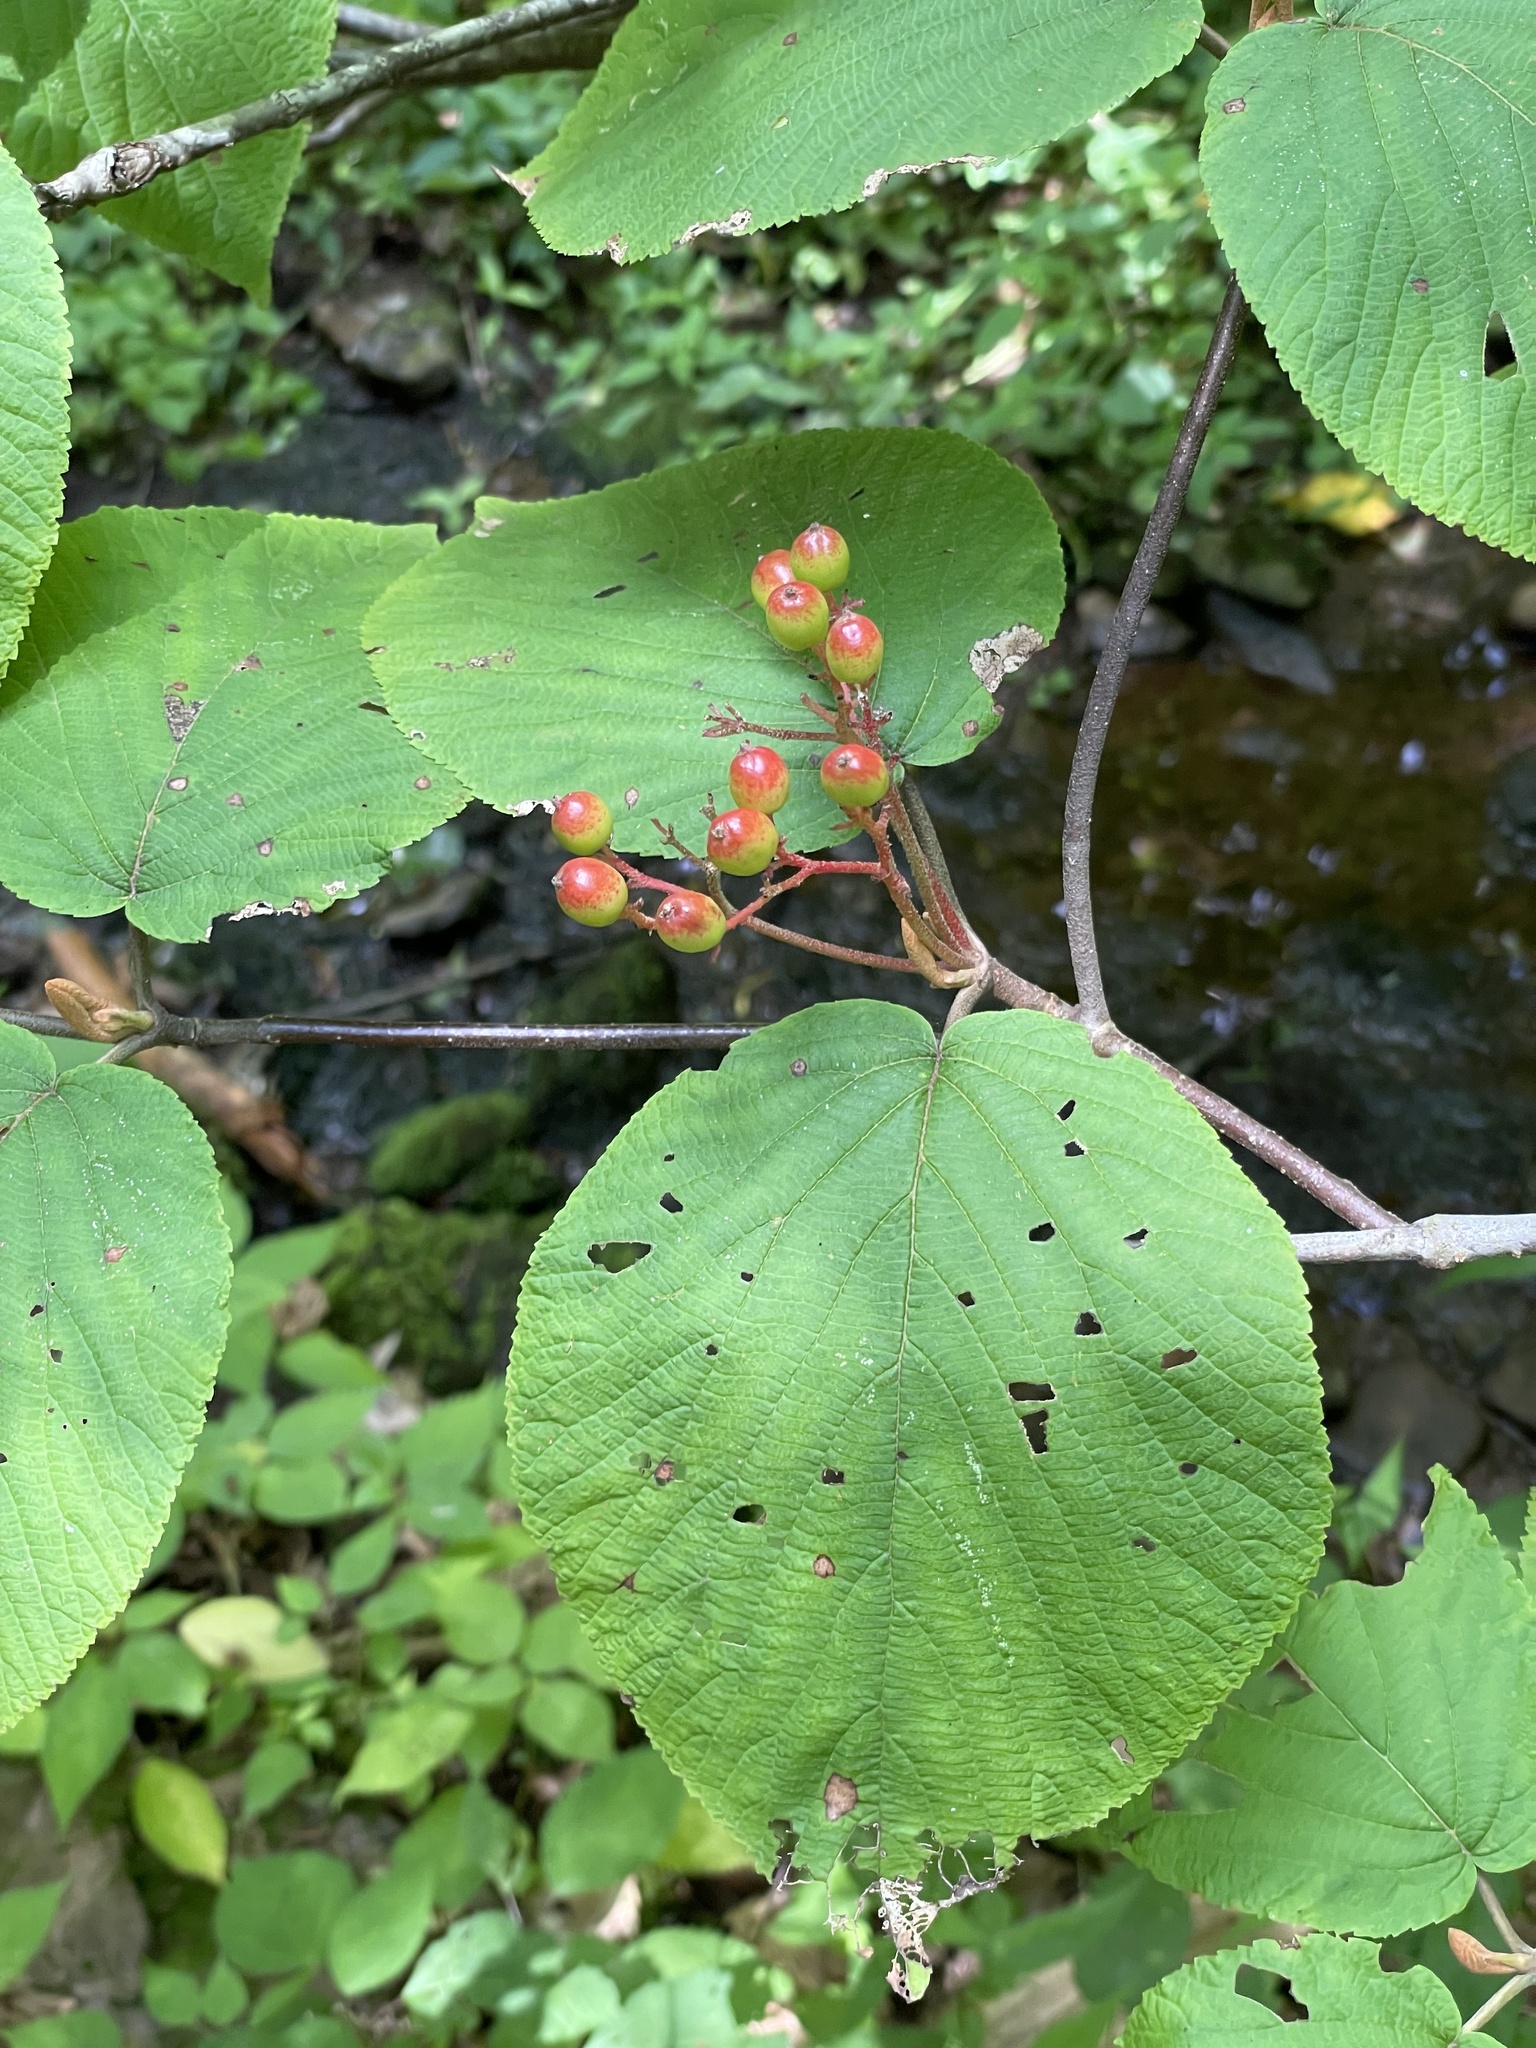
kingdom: Plantae
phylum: Tracheophyta
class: Magnoliopsida
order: Dipsacales
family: Viburnaceae
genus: Viburnum
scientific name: Viburnum lantanoides
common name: Hobblebush
